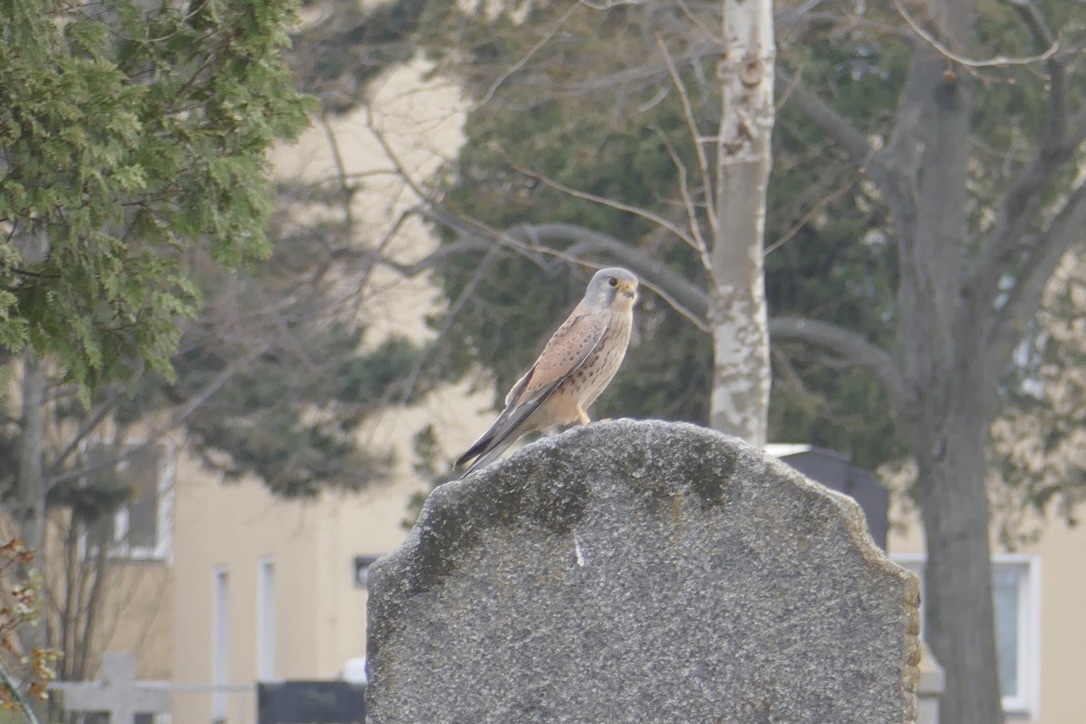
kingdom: Animalia
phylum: Chordata
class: Aves
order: Falconiformes
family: Falconidae
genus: Falco
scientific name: Falco tinnunculus
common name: Common kestrel
